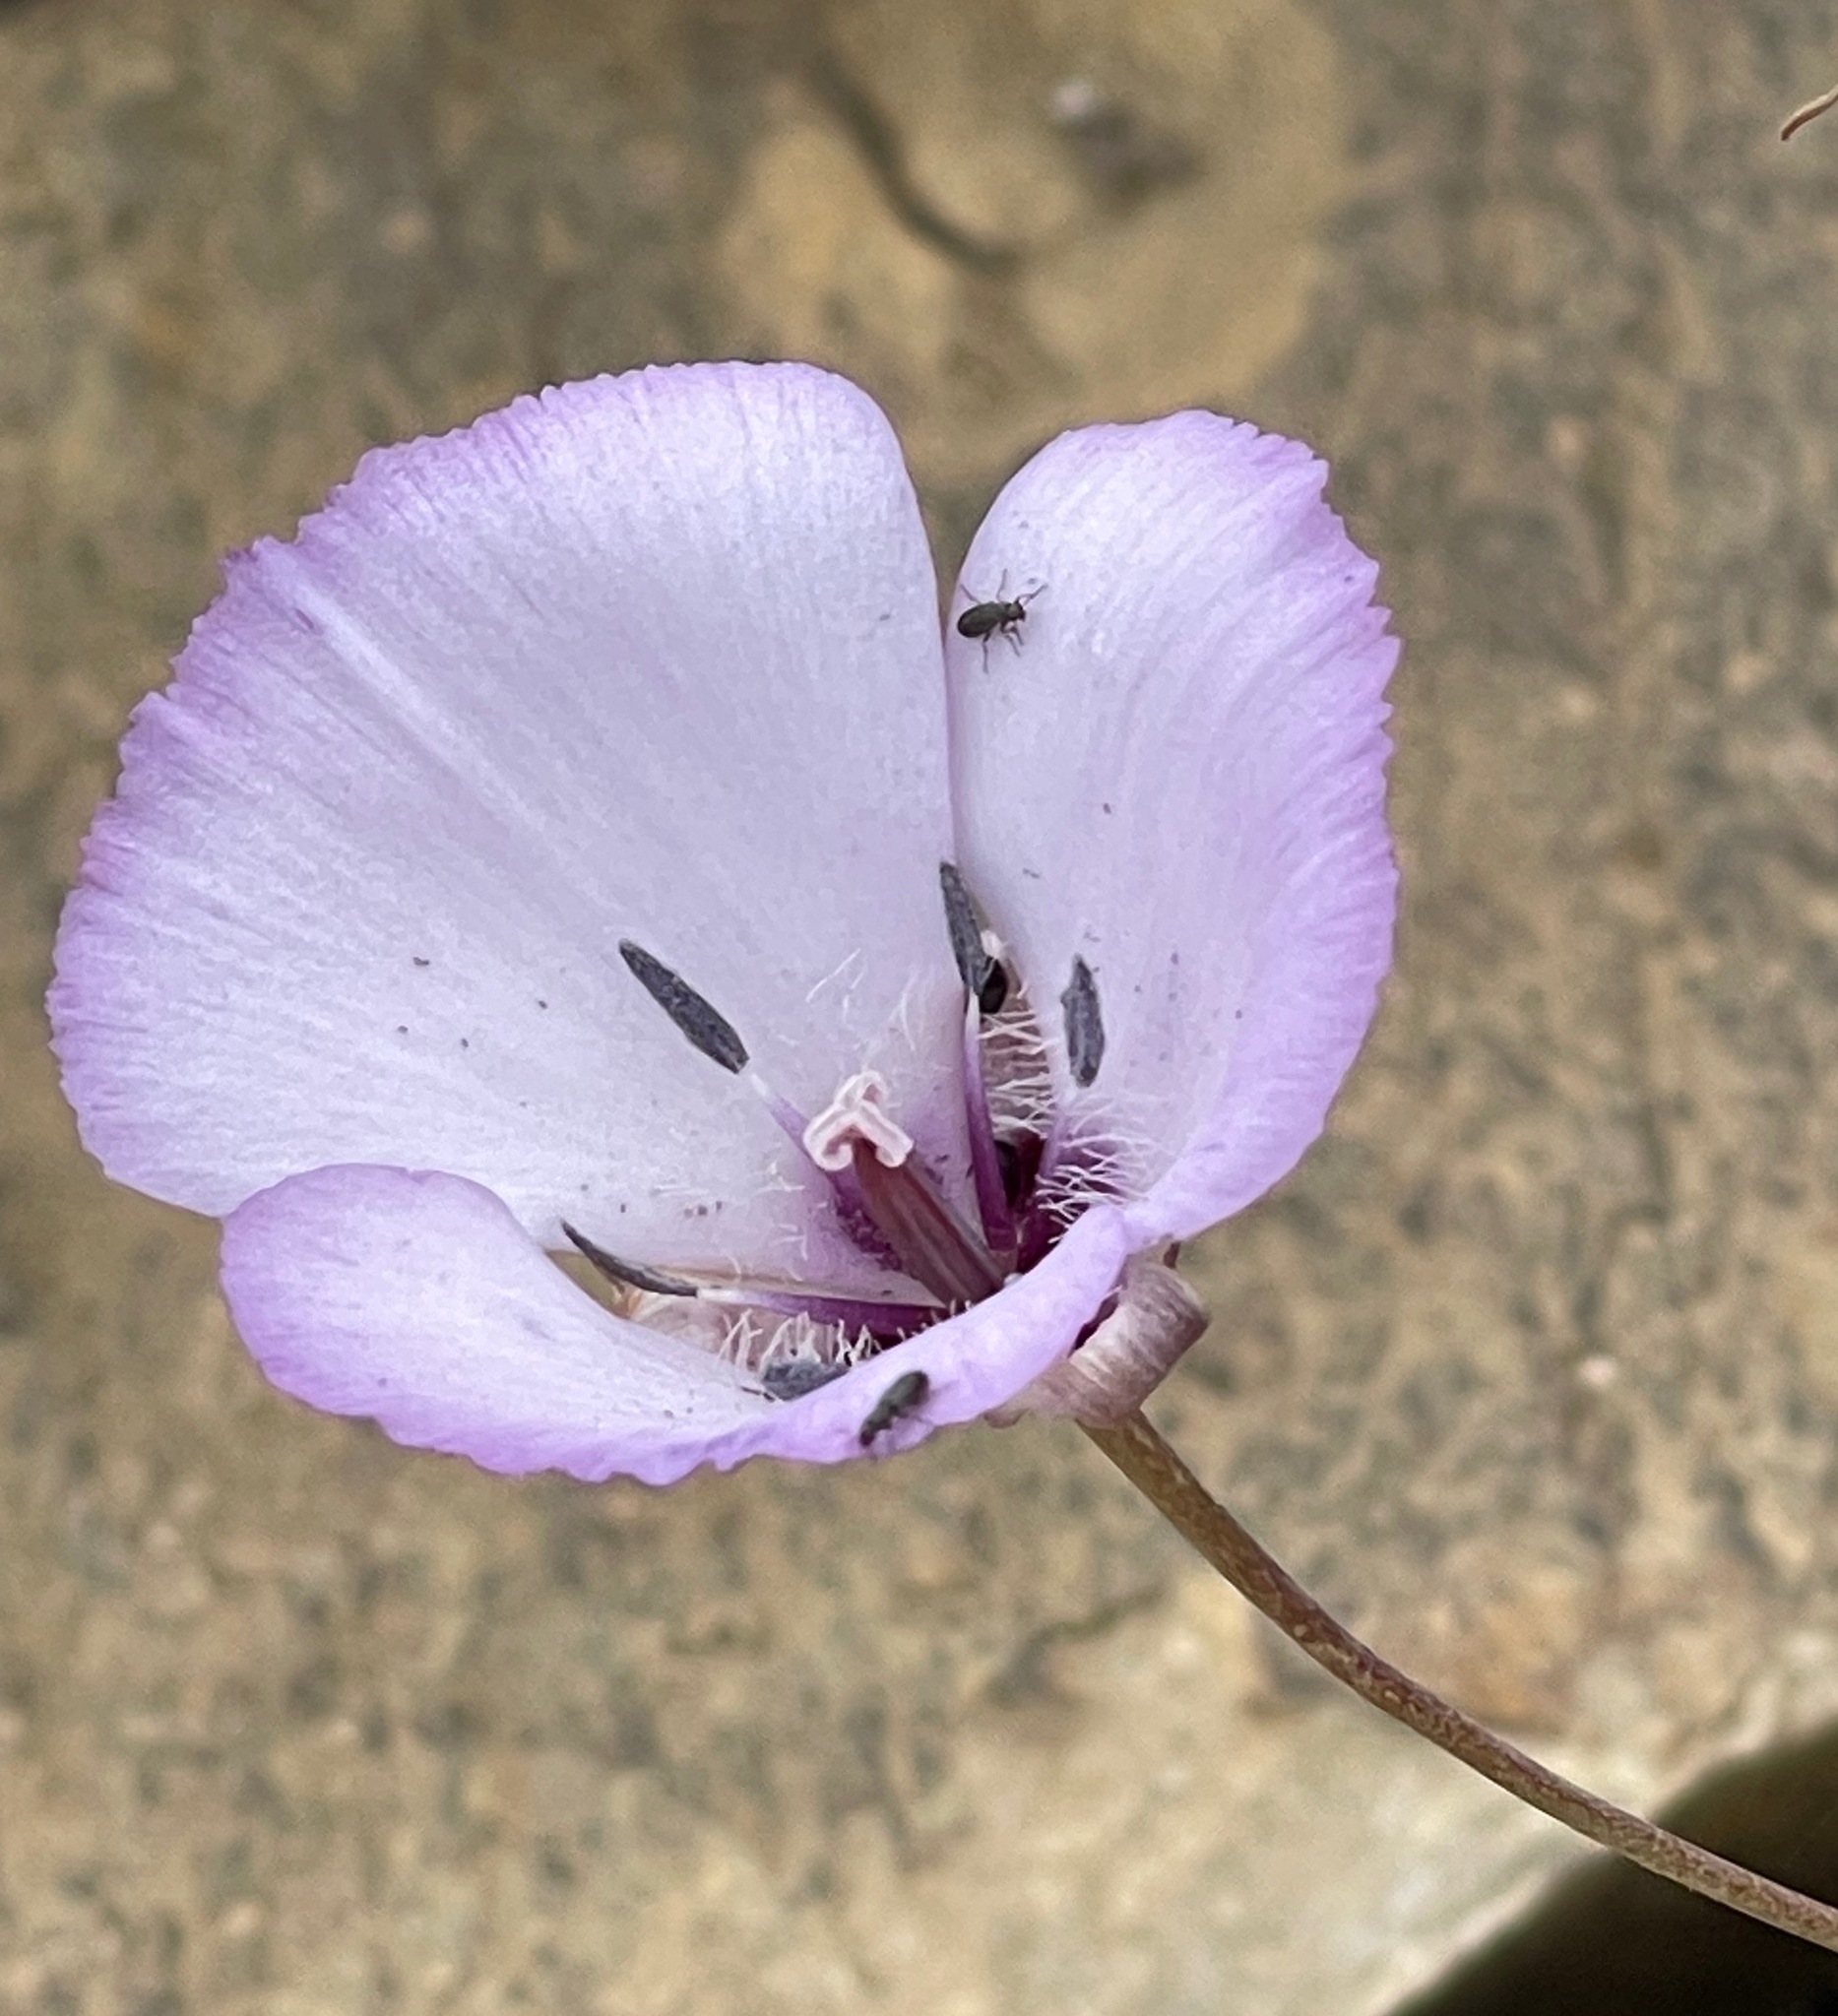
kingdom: Plantae
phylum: Tracheophyta
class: Liliopsida
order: Liliales
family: Liliaceae
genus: Calochortus
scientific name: Calochortus splendens
